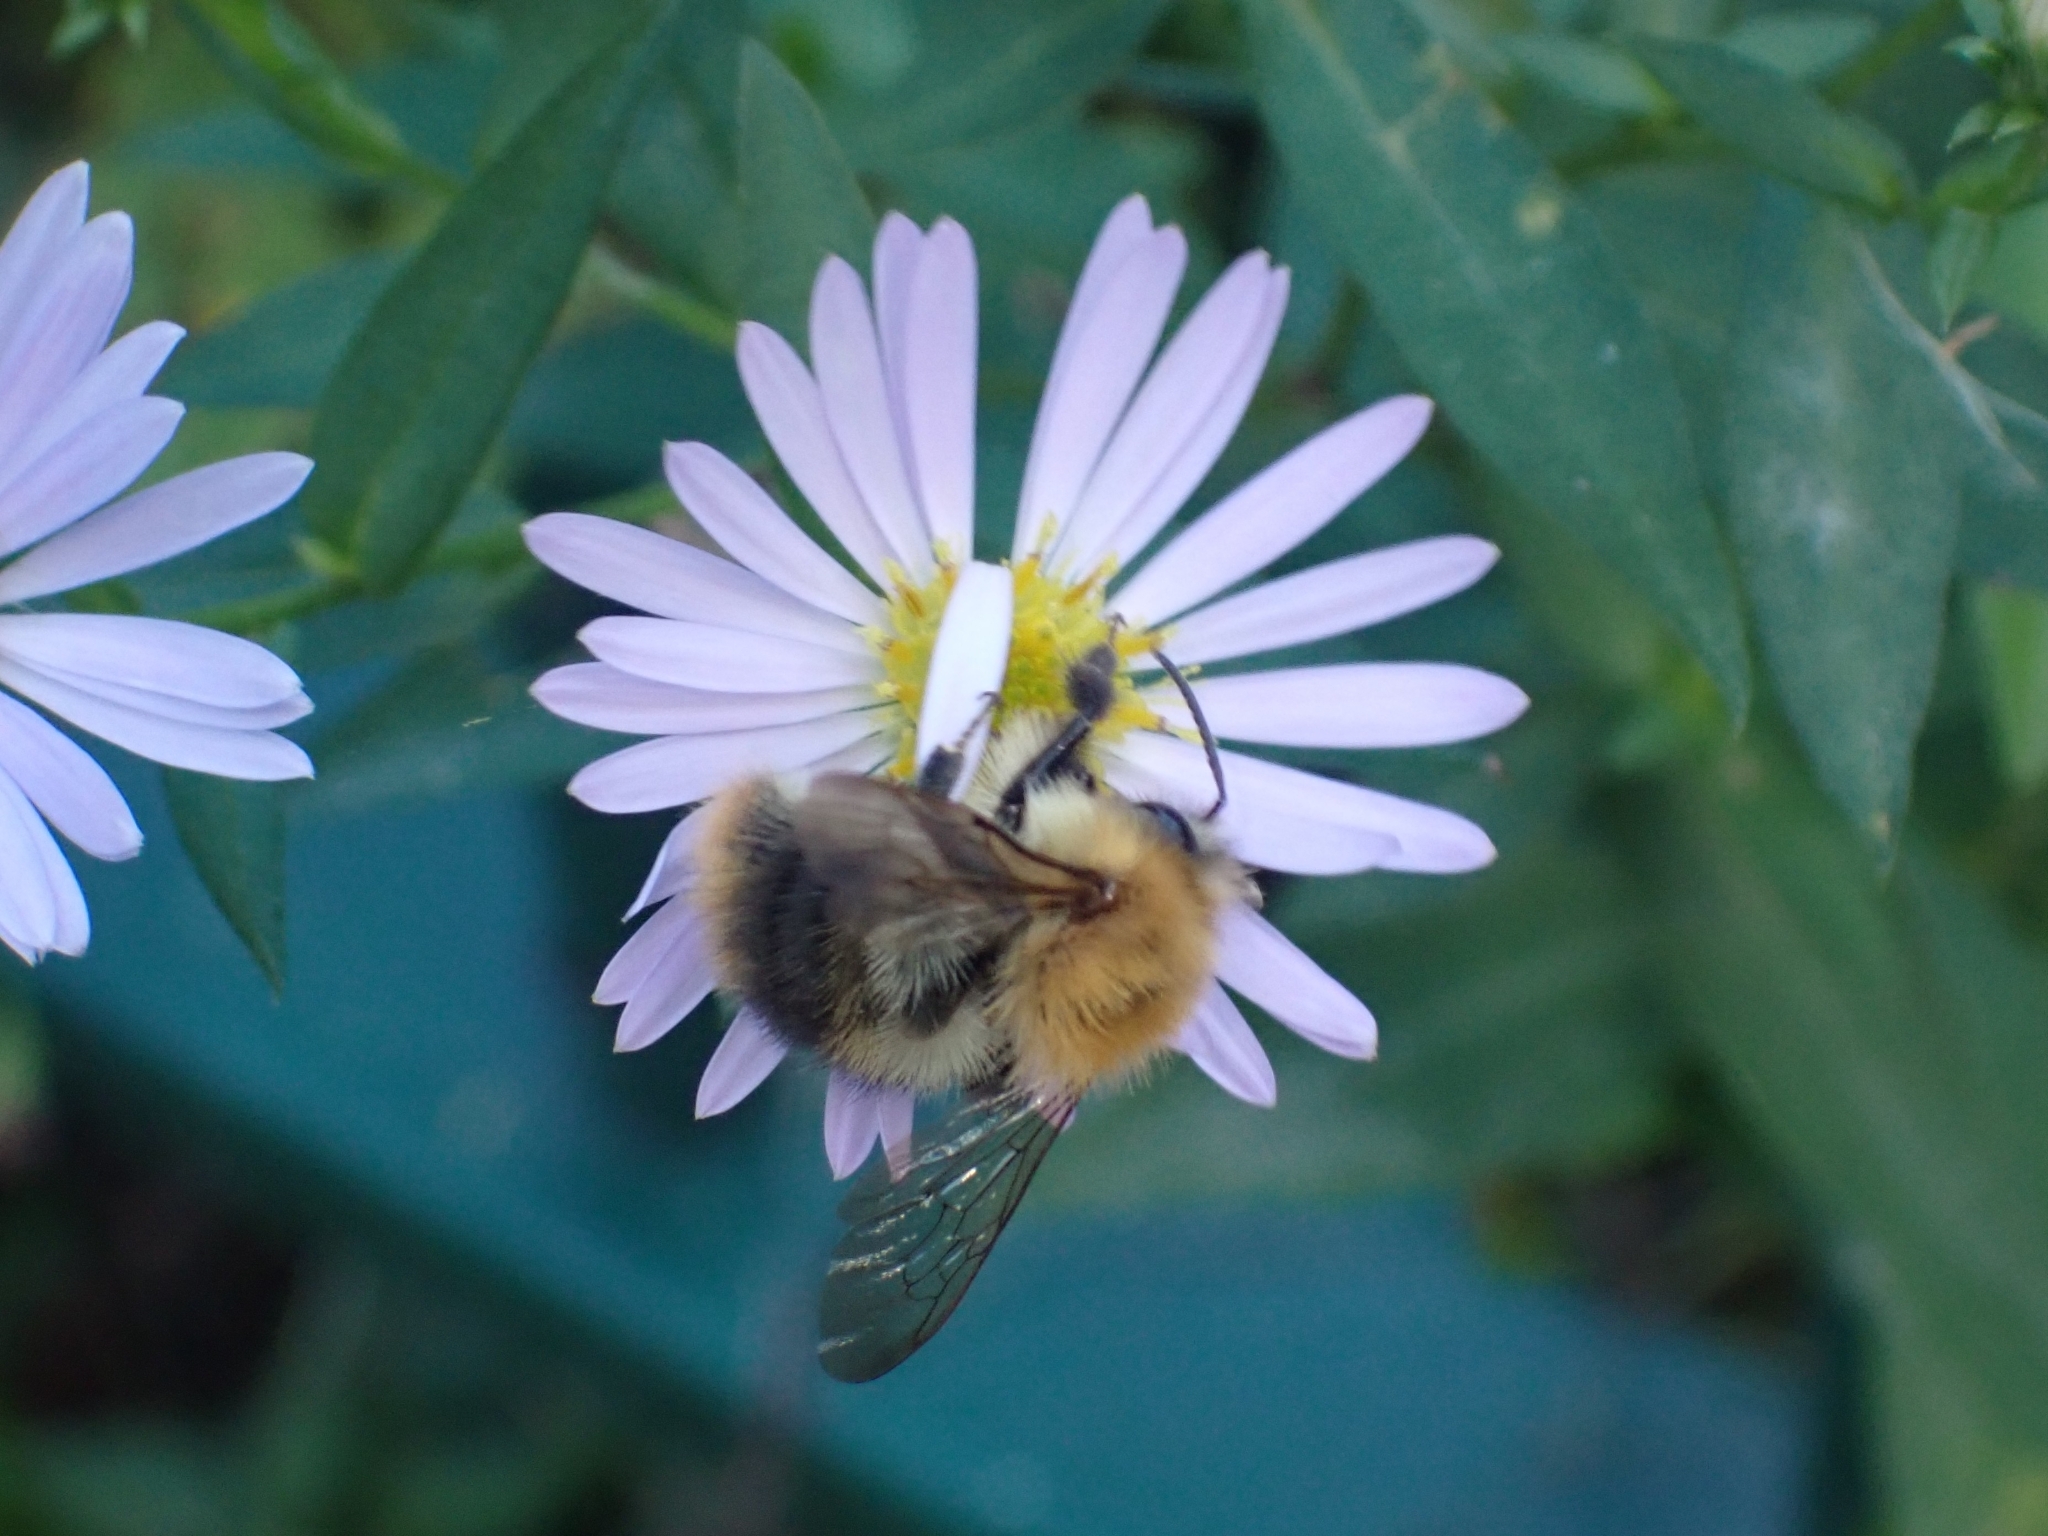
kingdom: Animalia
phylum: Arthropoda
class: Insecta
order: Hymenoptera
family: Apidae
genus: Bombus
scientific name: Bombus pascuorum
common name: Common carder bee
